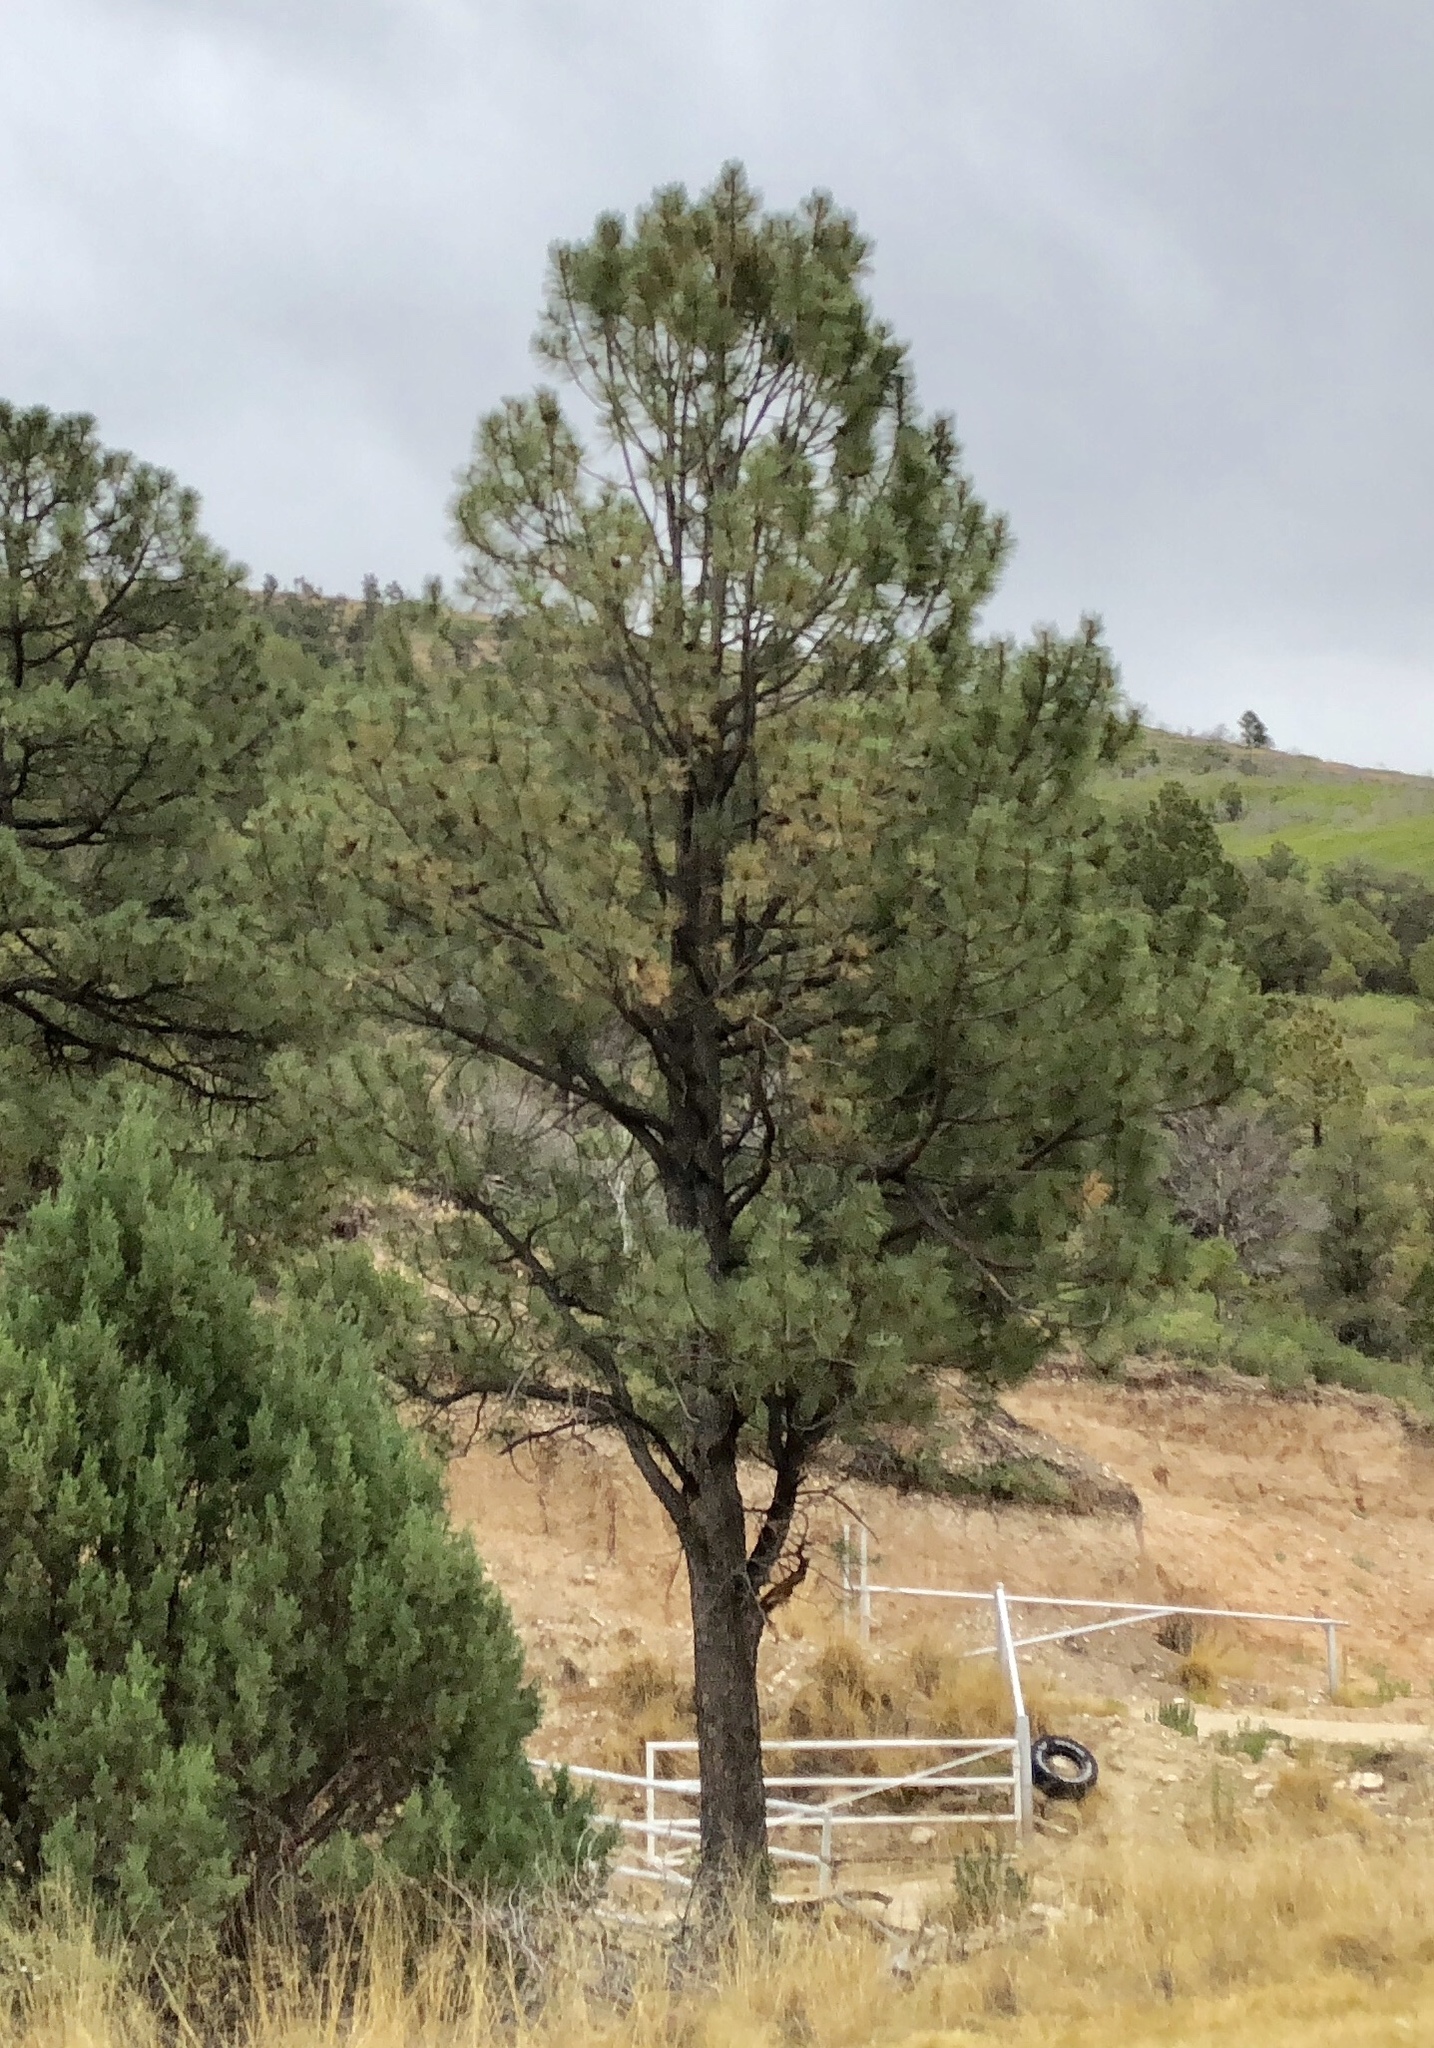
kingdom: Plantae
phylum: Tracheophyta
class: Pinopsida
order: Pinales
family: Pinaceae
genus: Pinus
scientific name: Pinus ponderosa
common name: Western yellow-pine
